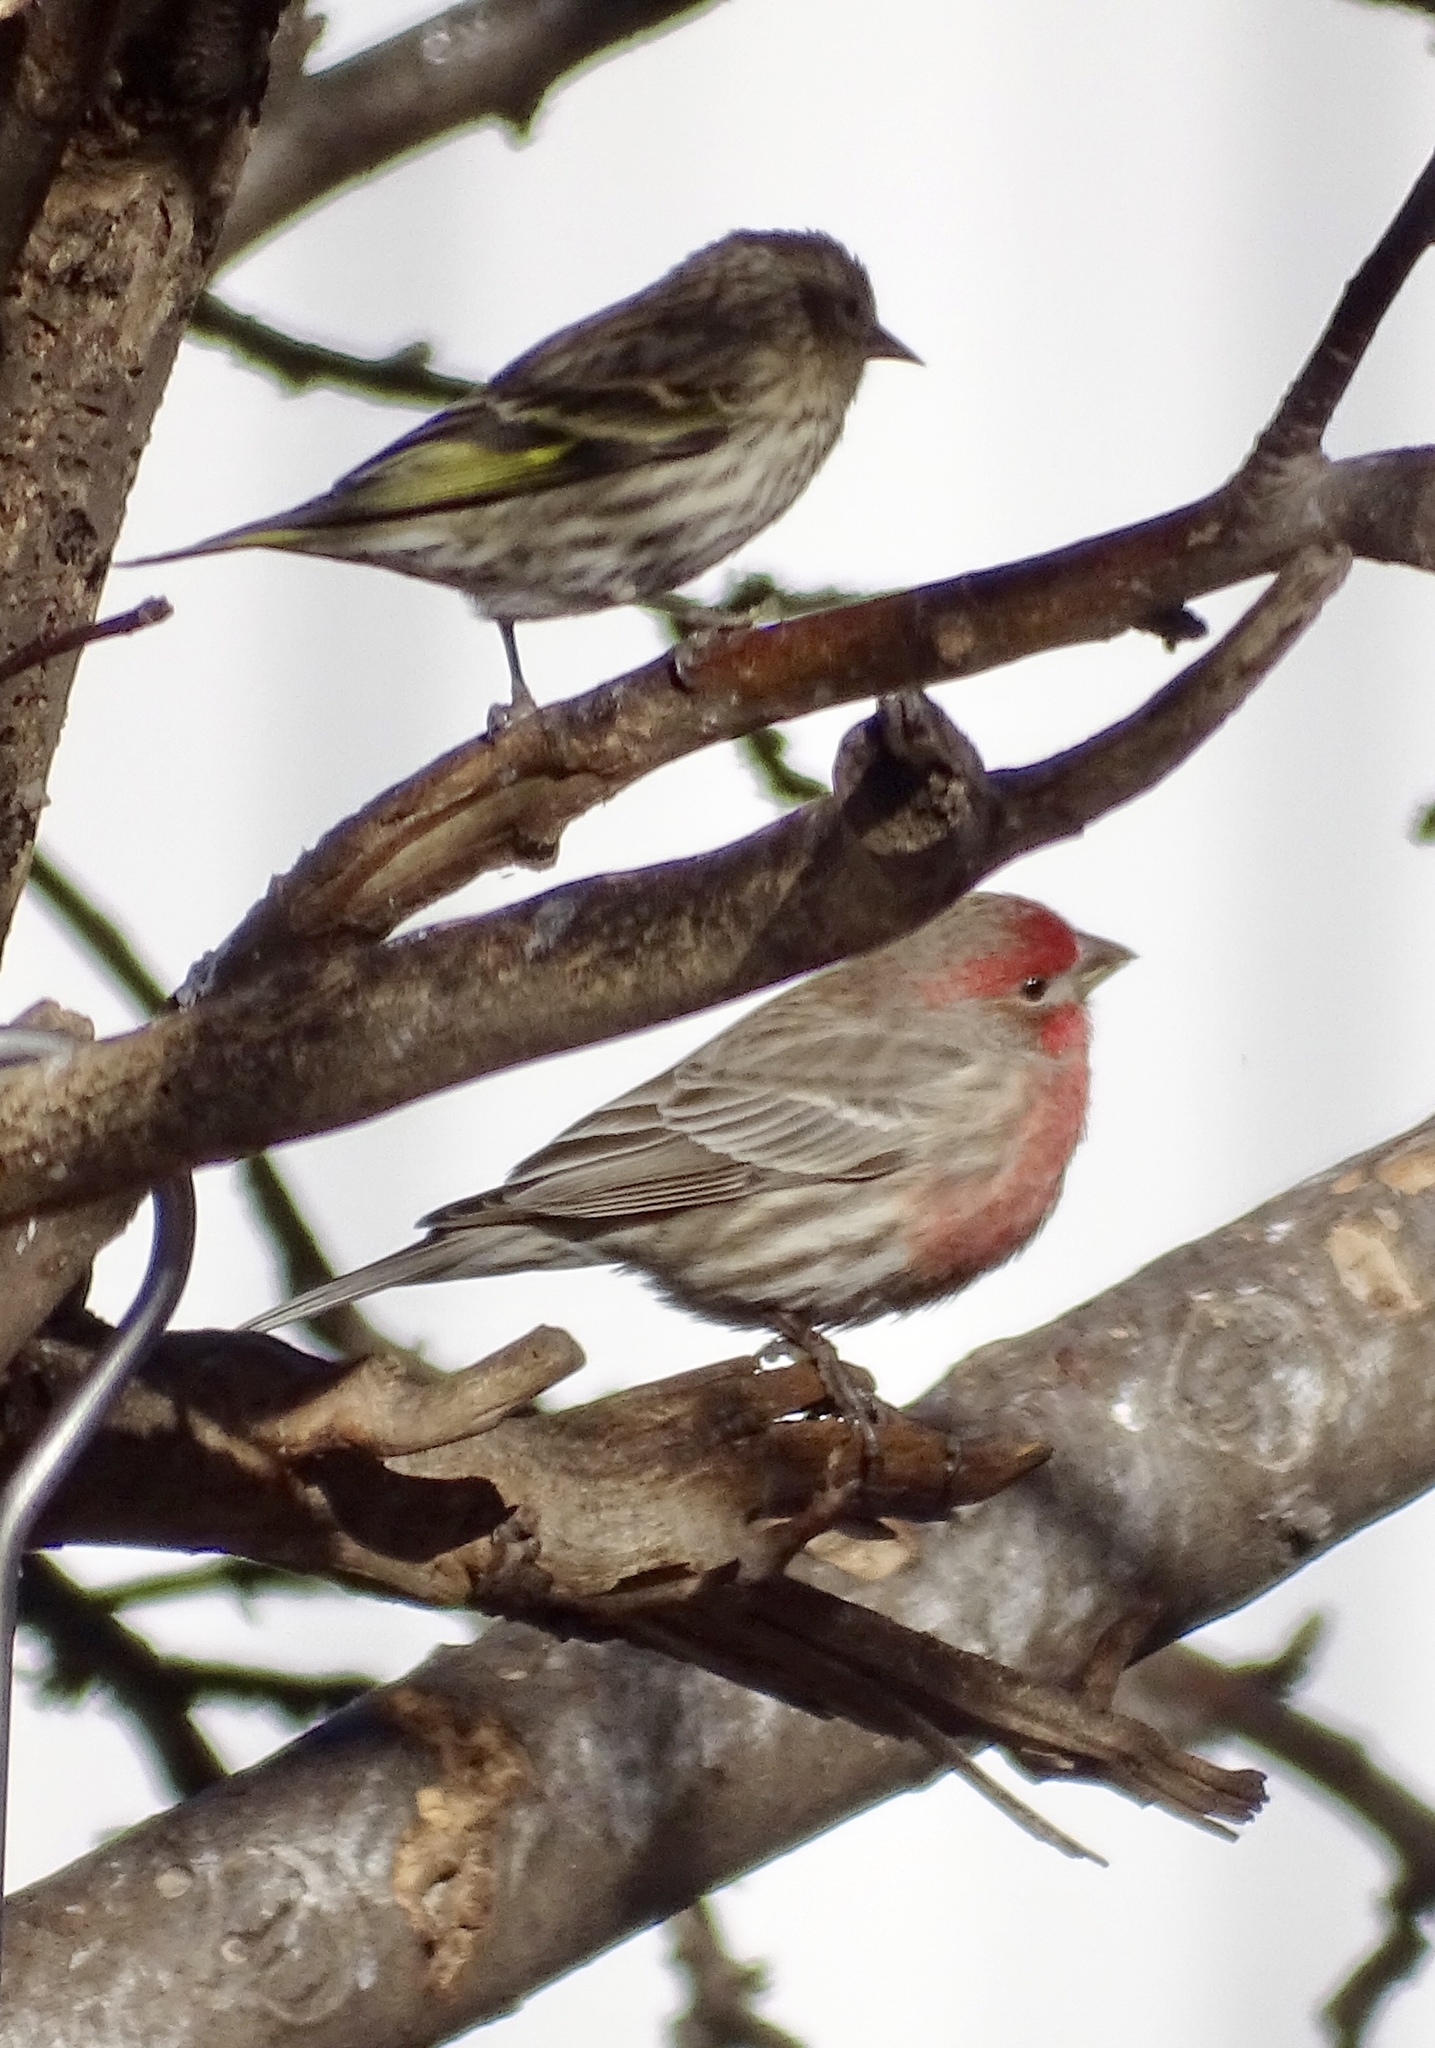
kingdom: Animalia
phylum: Chordata
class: Aves
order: Passeriformes
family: Fringillidae
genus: Haemorhous
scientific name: Haemorhous mexicanus
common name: House finch
